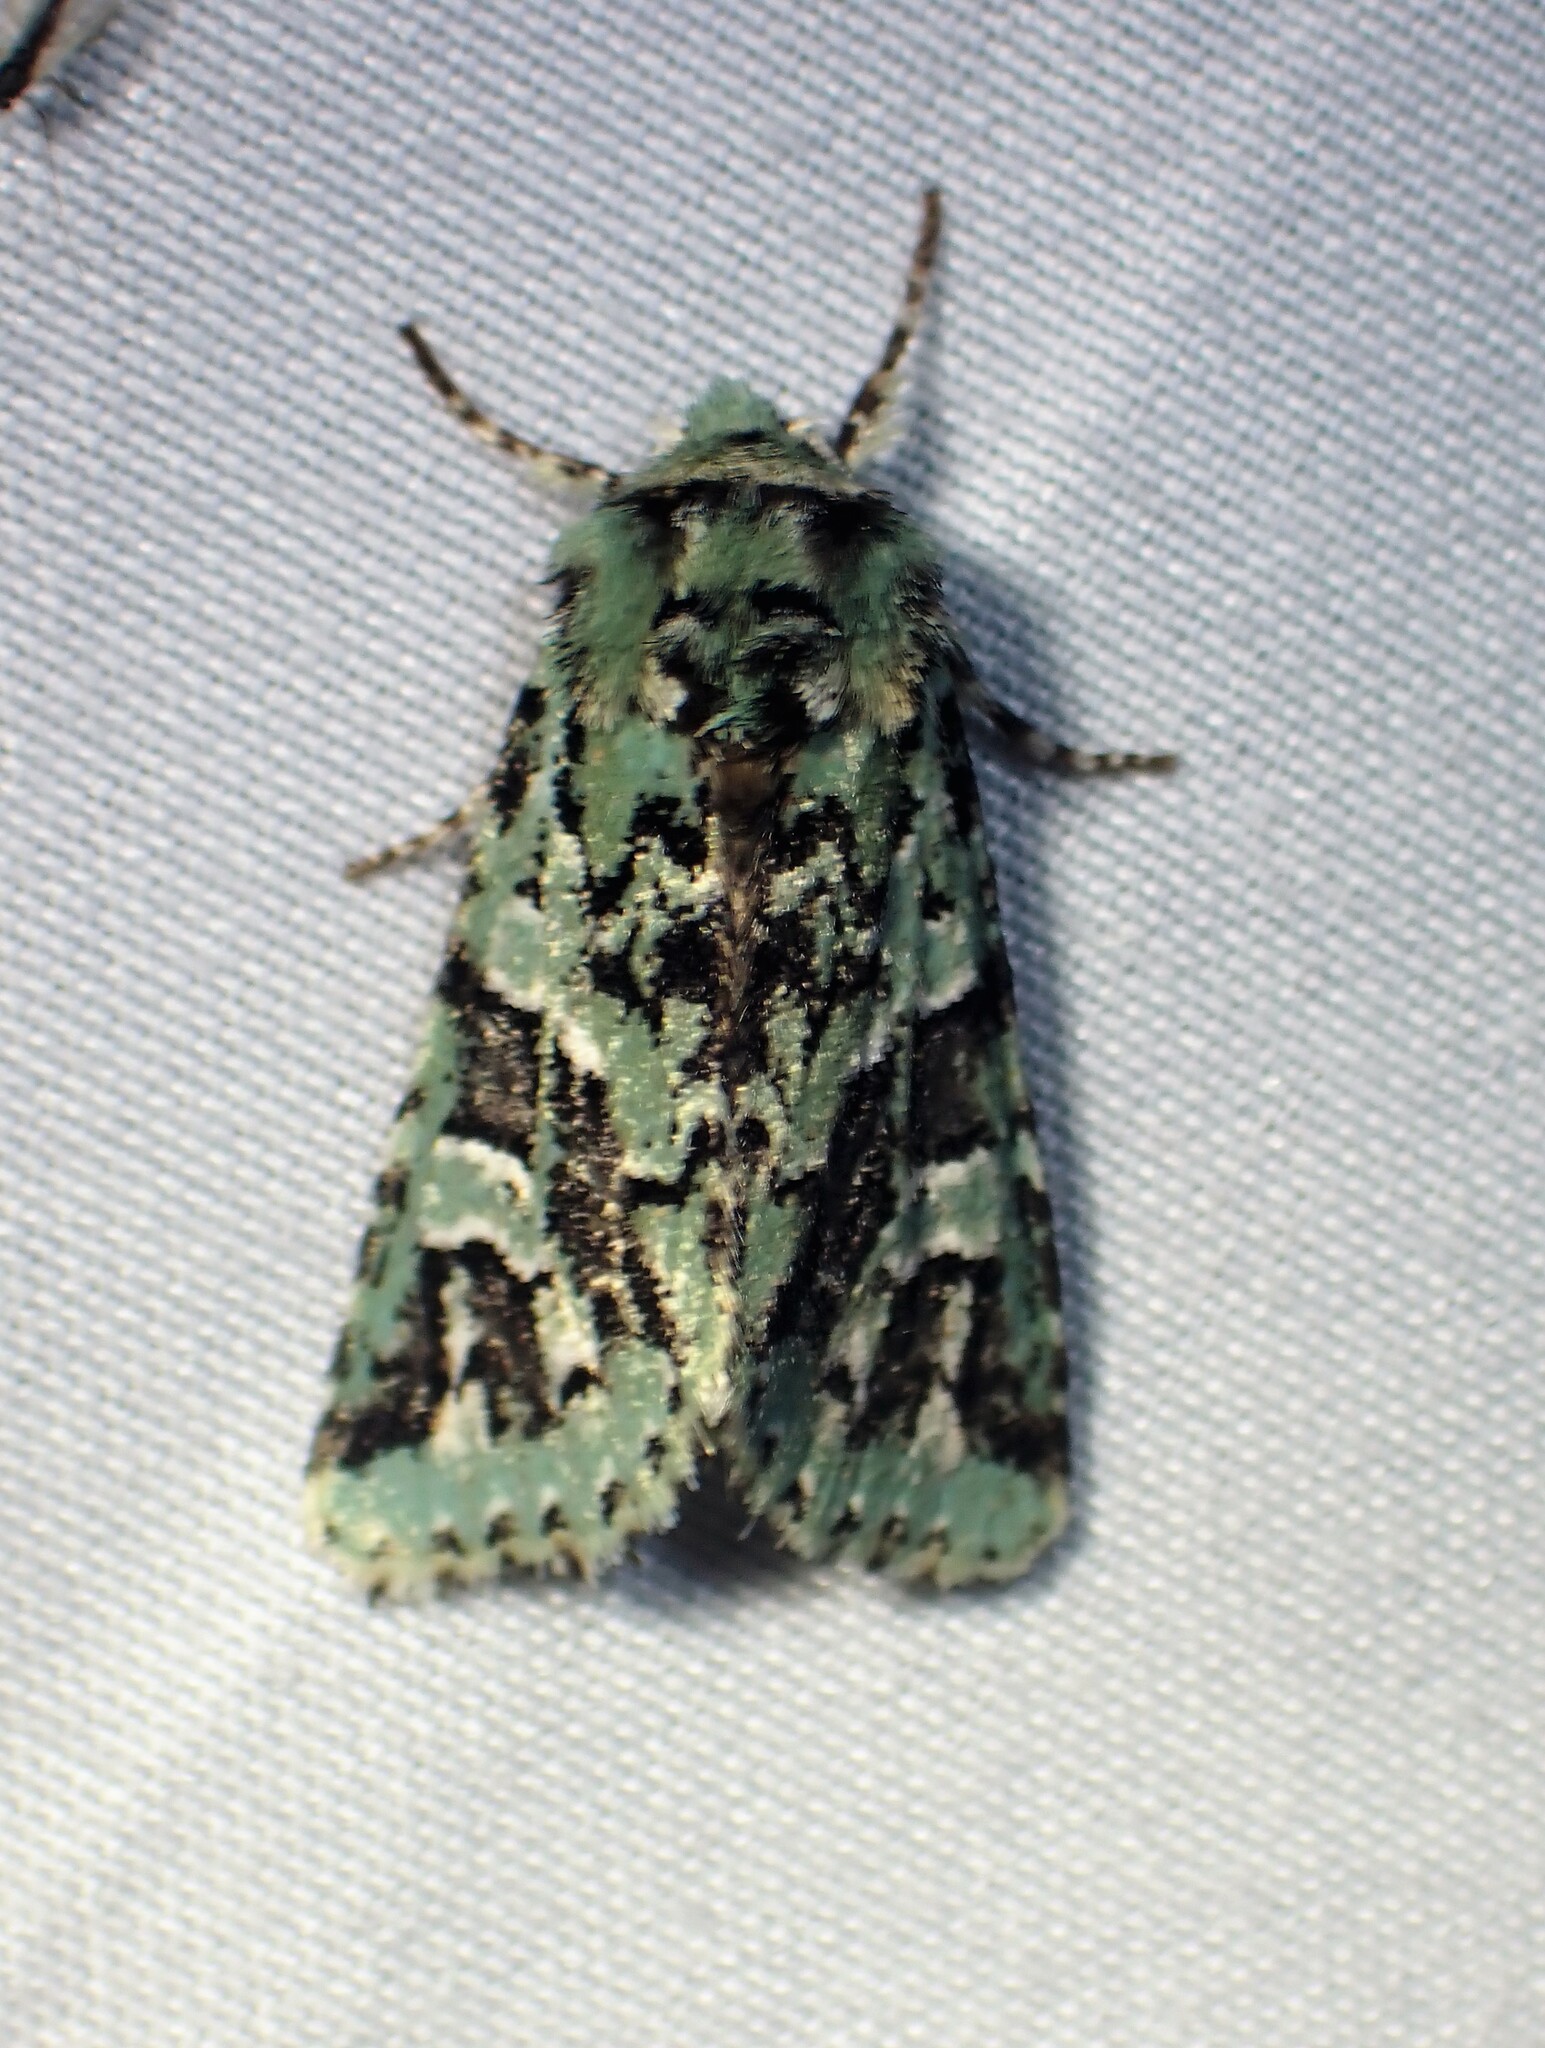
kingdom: Animalia
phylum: Arthropoda
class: Insecta
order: Lepidoptera
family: Noctuidae
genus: Feralia
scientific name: Feralia comstocki
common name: Comstock's sallow
